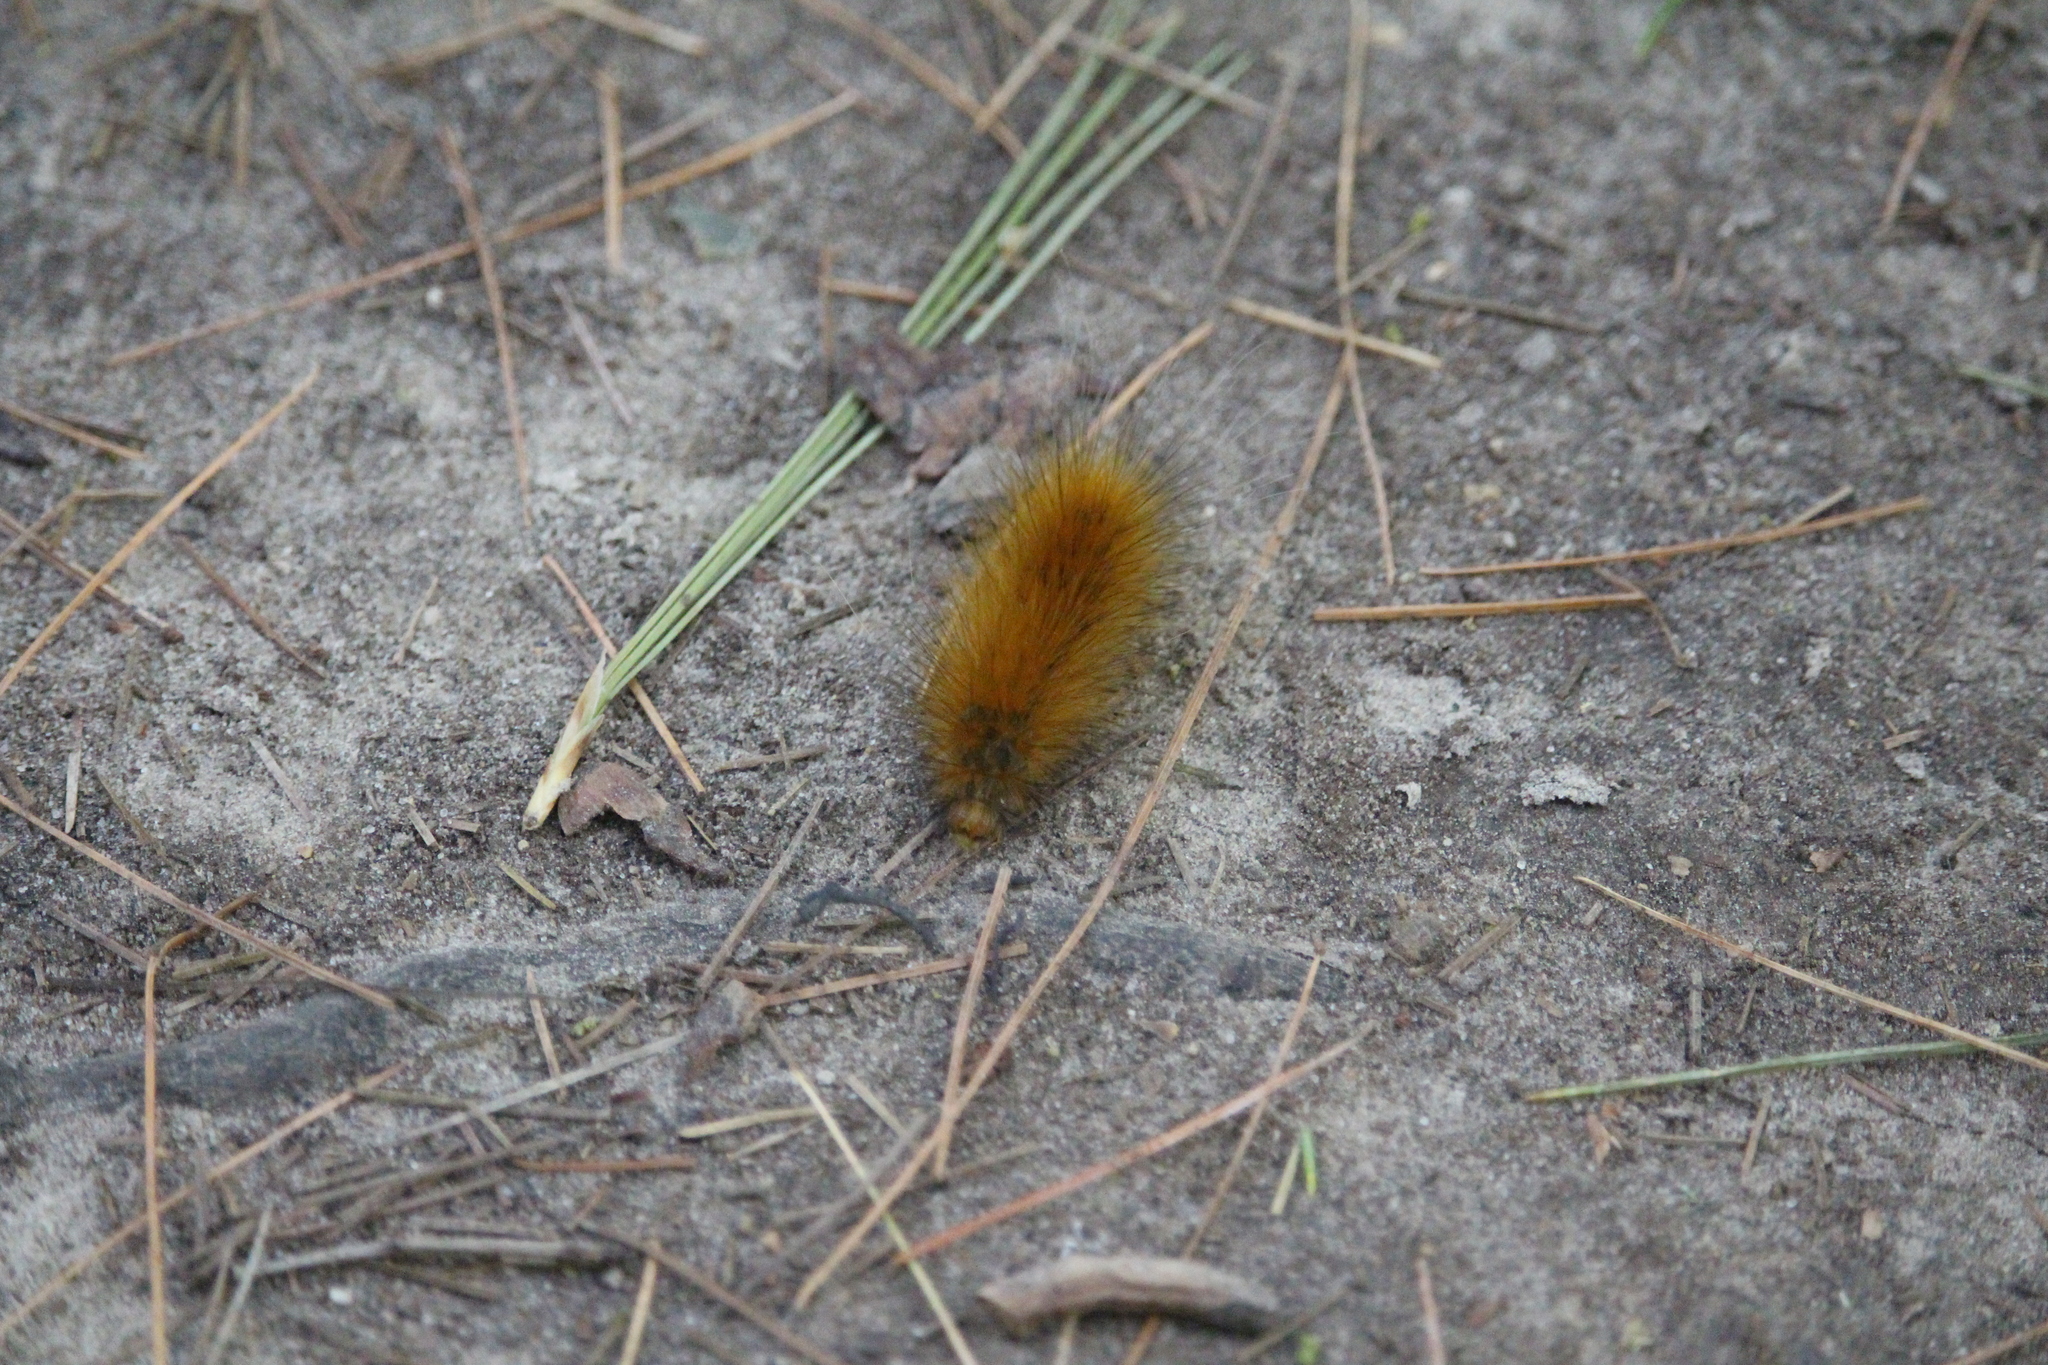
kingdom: Animalia
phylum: Arthropoda
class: Insecta
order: Lepidoptera
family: Erebidae
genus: Spilosoma
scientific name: Spilosoma virginica
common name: Virginia tiger moth
